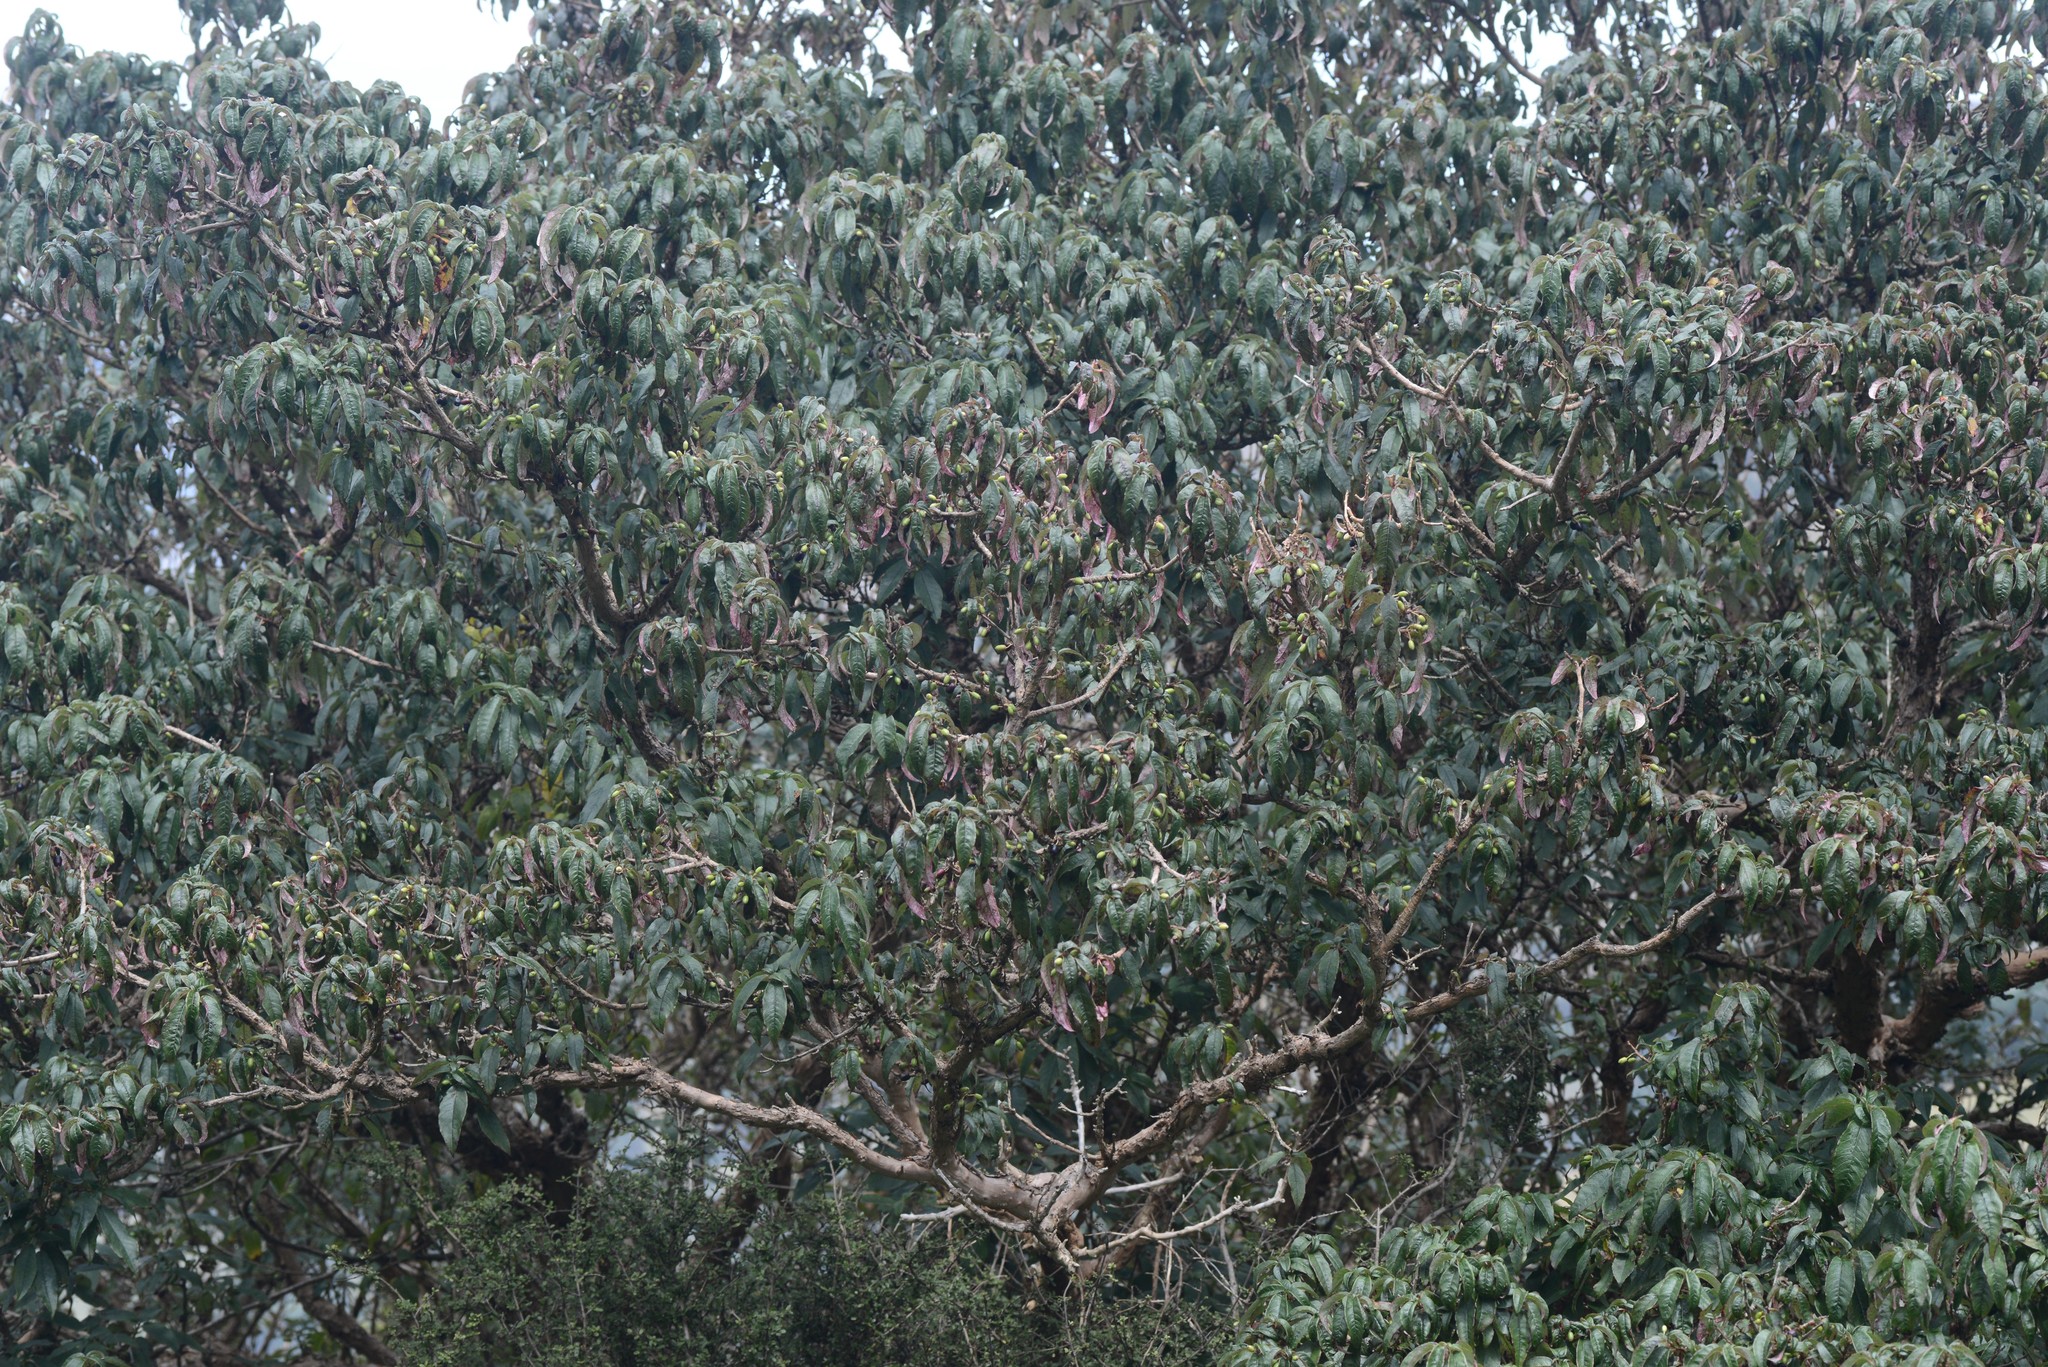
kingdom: Plantae
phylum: Tracheophyta
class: Magnoliopsida
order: Myrtales
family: Onagraceae
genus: Fuchsia
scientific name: Fuchsia excorticata
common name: Tree fuchsia
